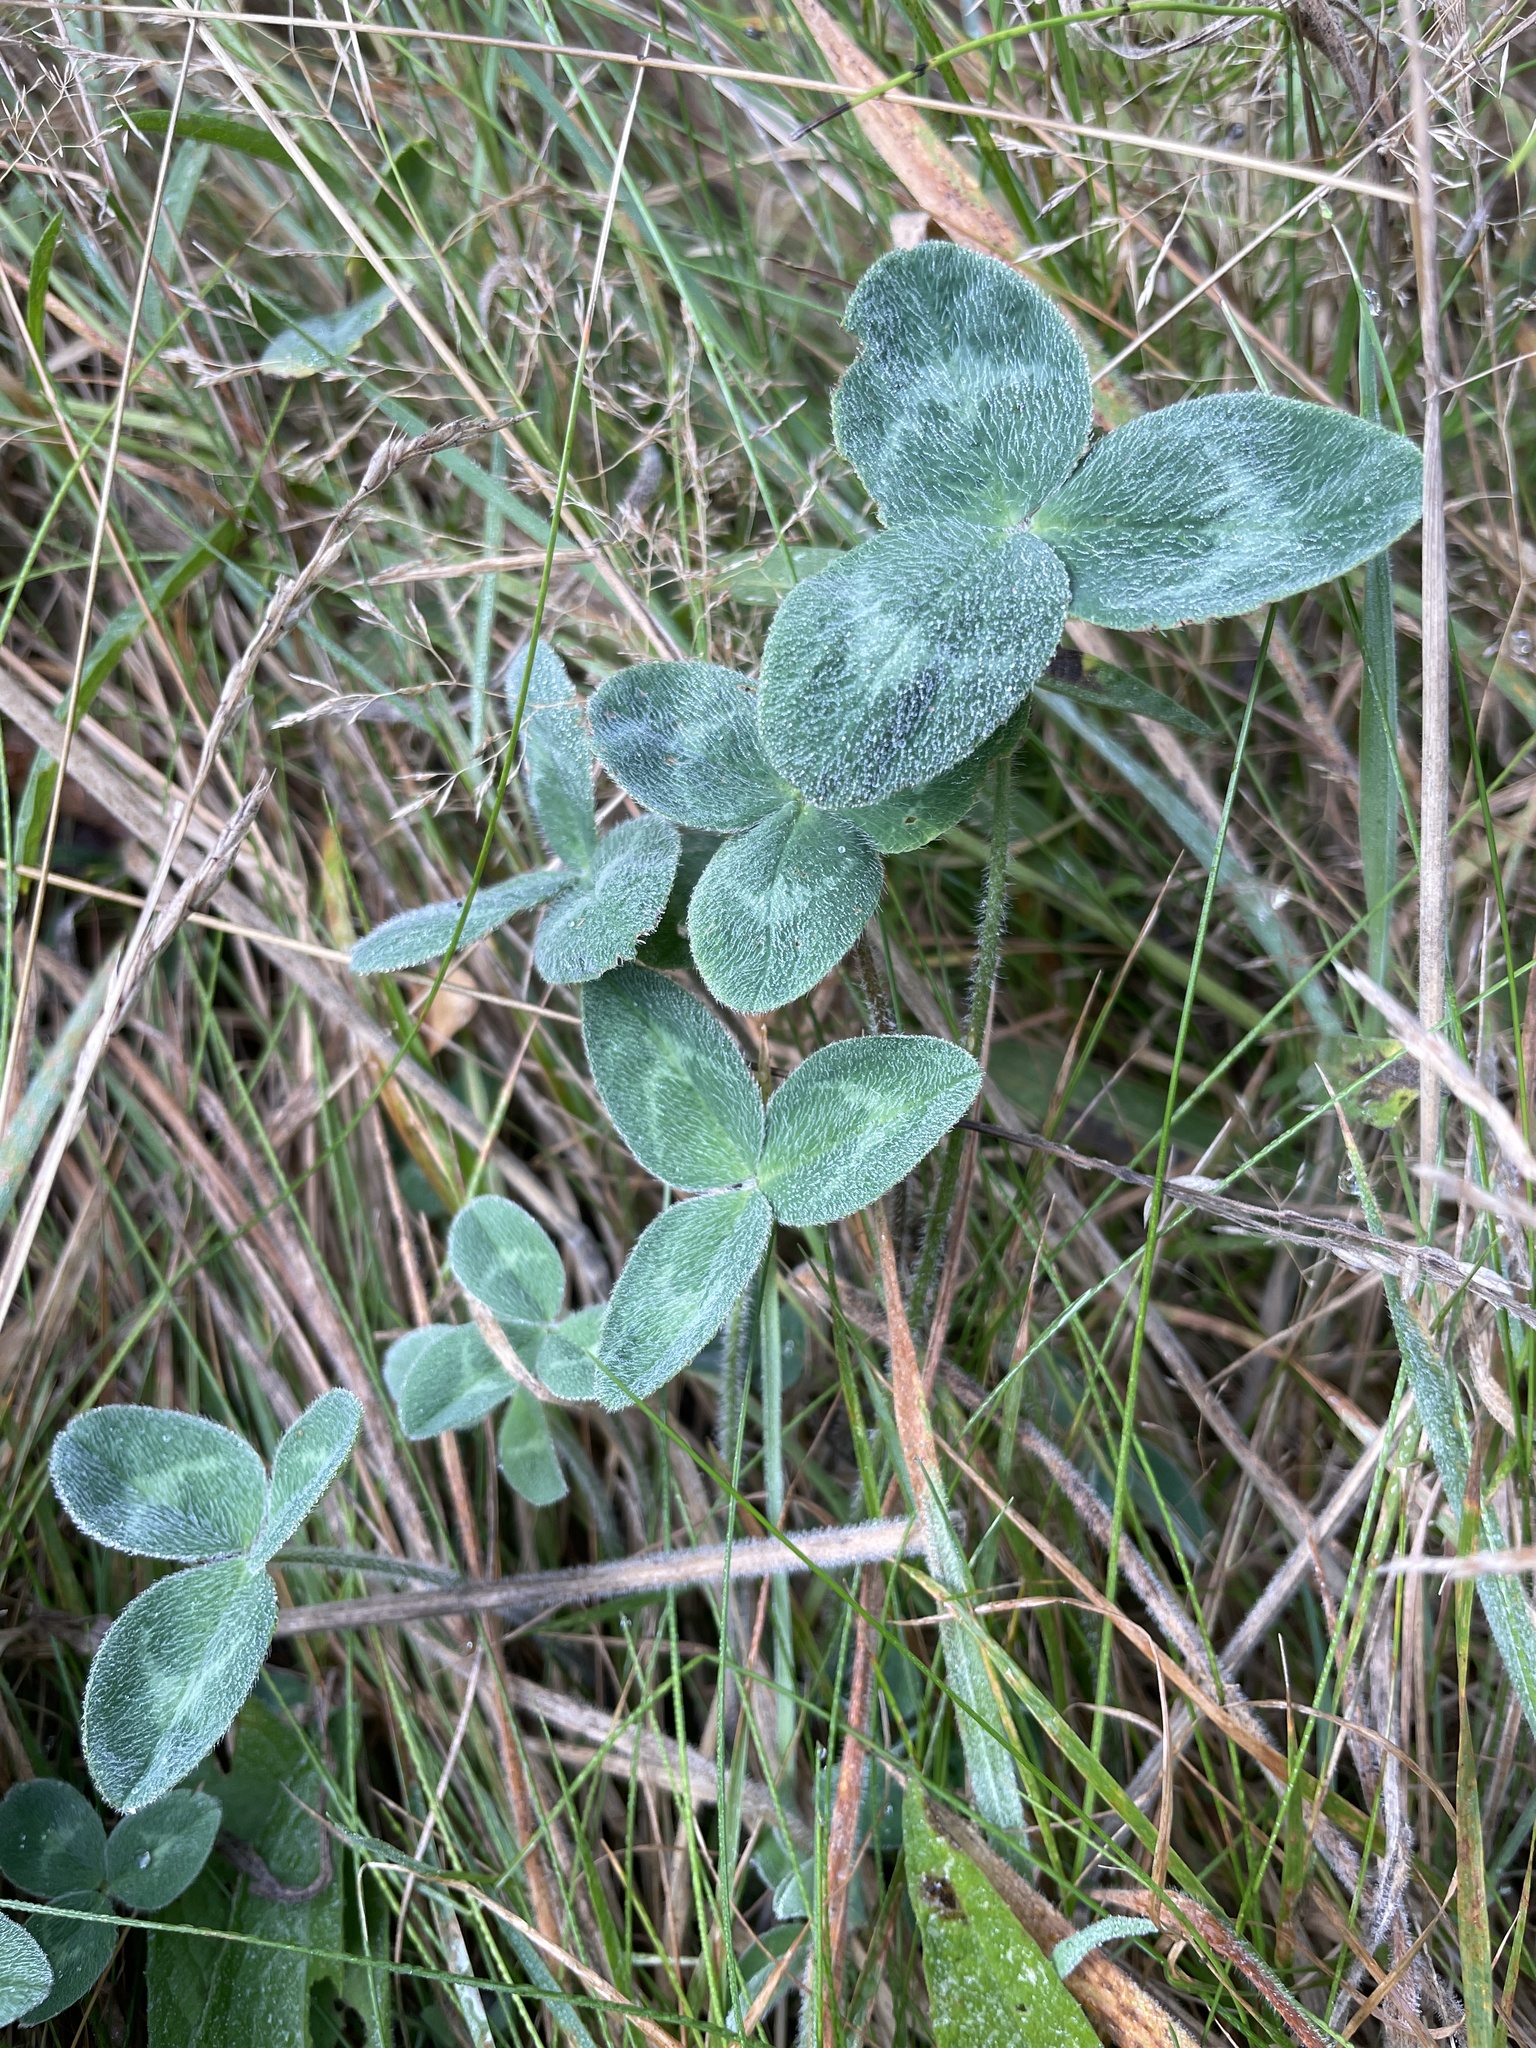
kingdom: Plantae
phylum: Tracheophyta
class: Magnoliopsida
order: Fabales
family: Fabaceae
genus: Trifolium
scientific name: Trifolium pratense
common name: Red clover
